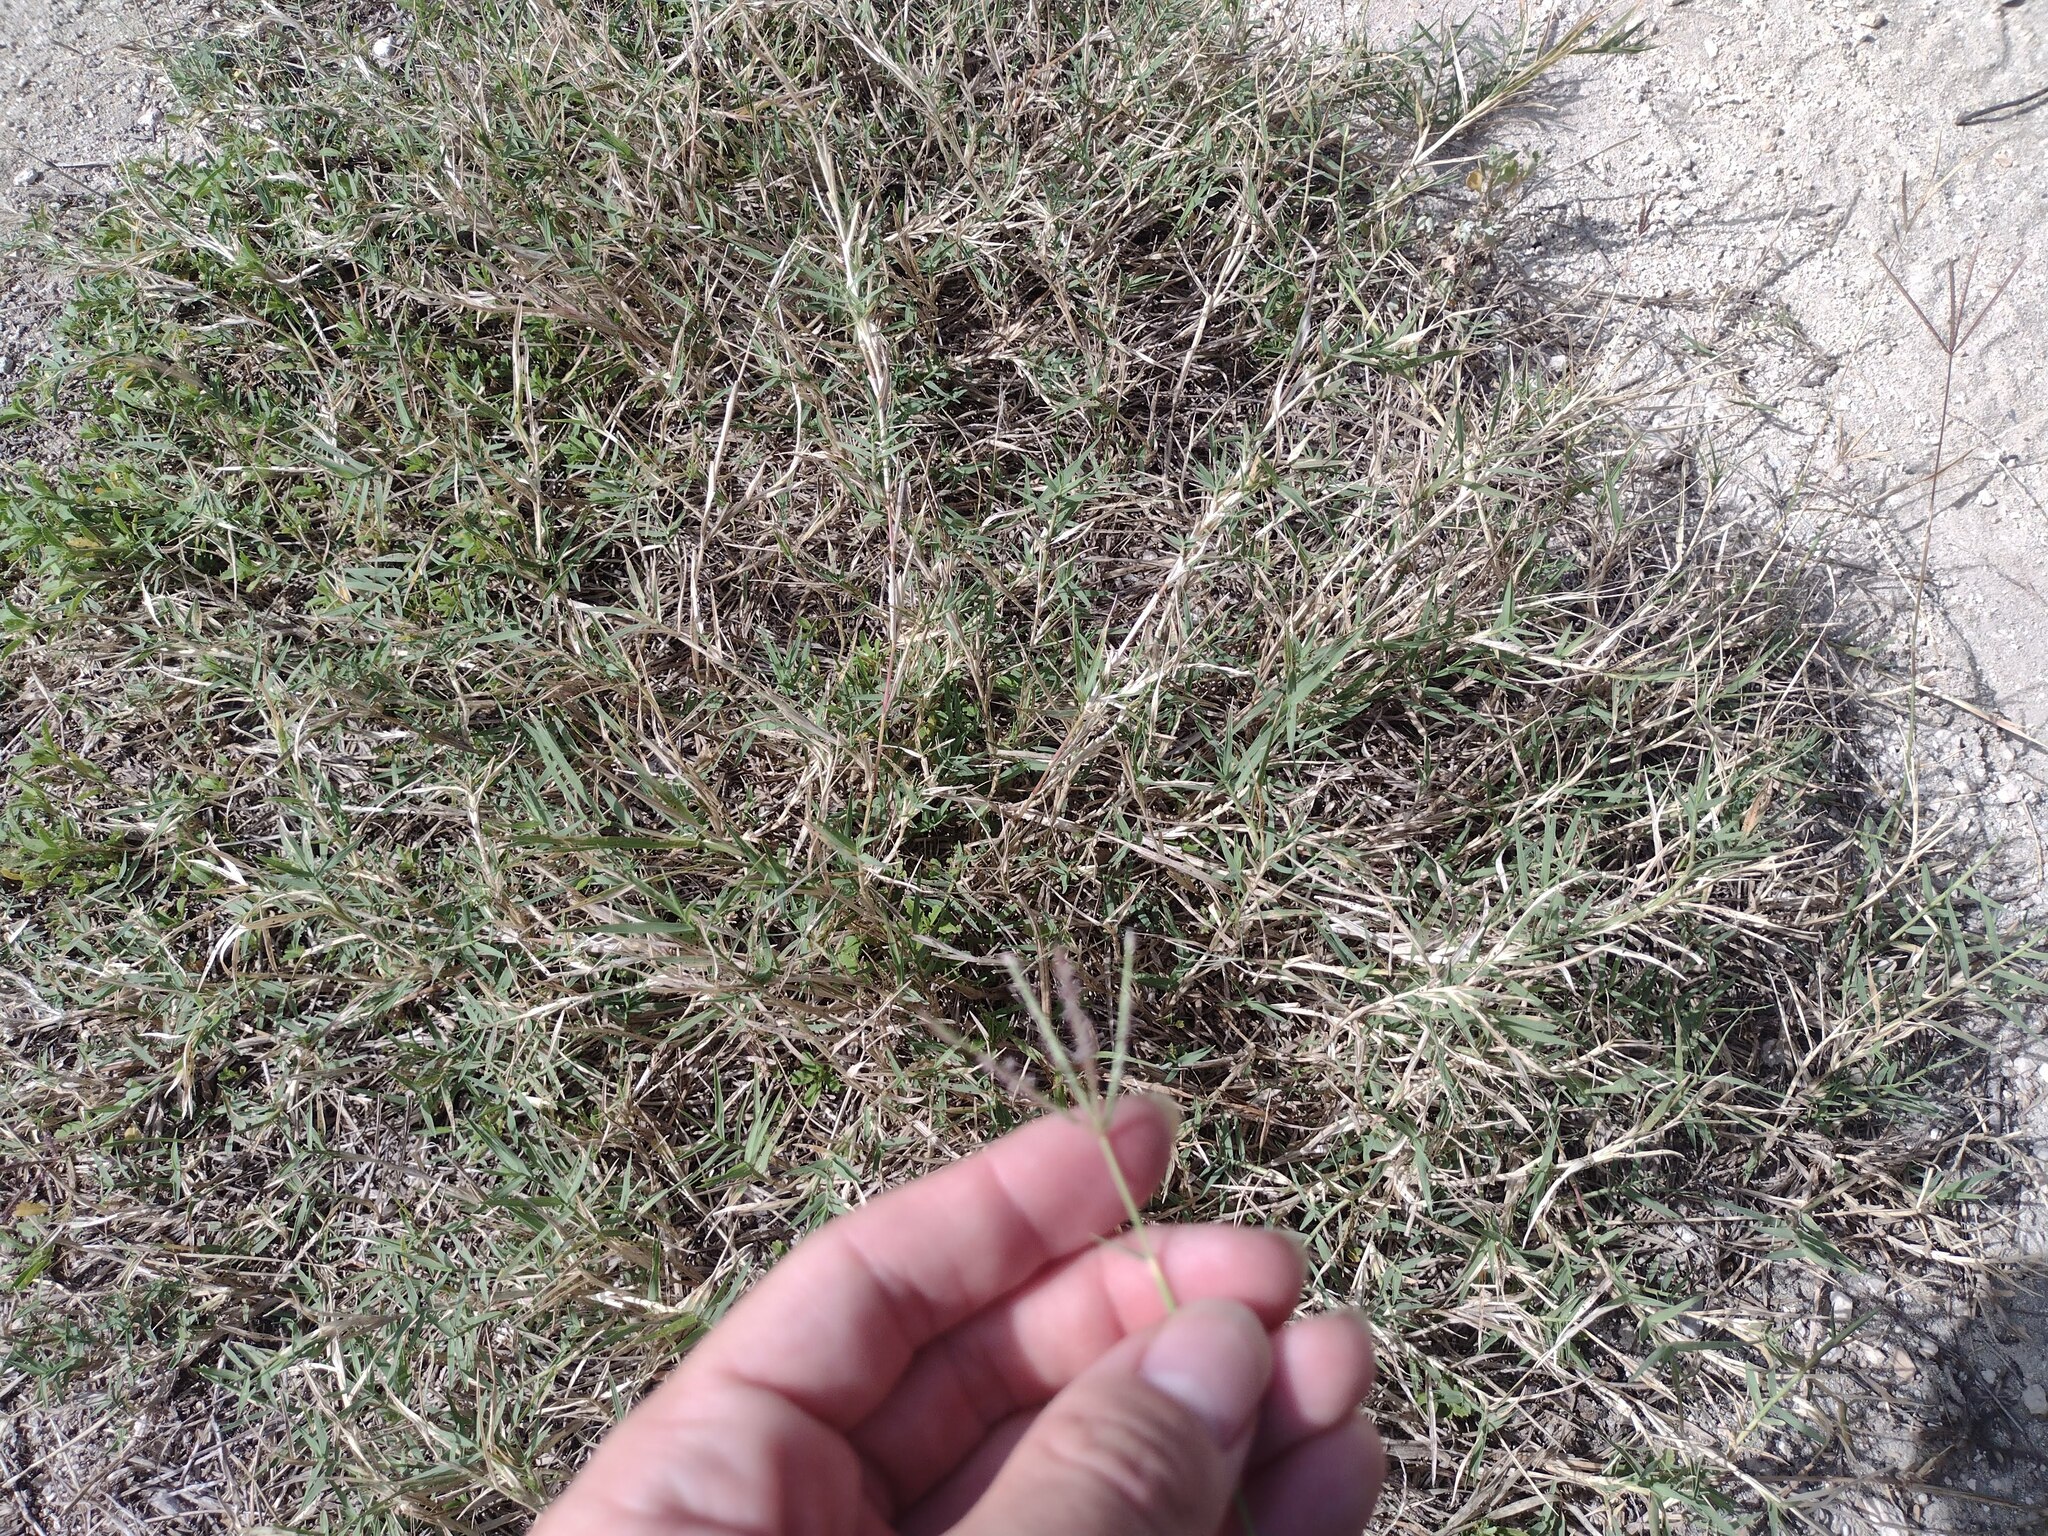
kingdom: Plantae
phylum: Tracheophyta
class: Liliopsida
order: Poales
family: Poaceae
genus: Cynodon
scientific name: Cynodon dactylon
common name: Bermuda grass
